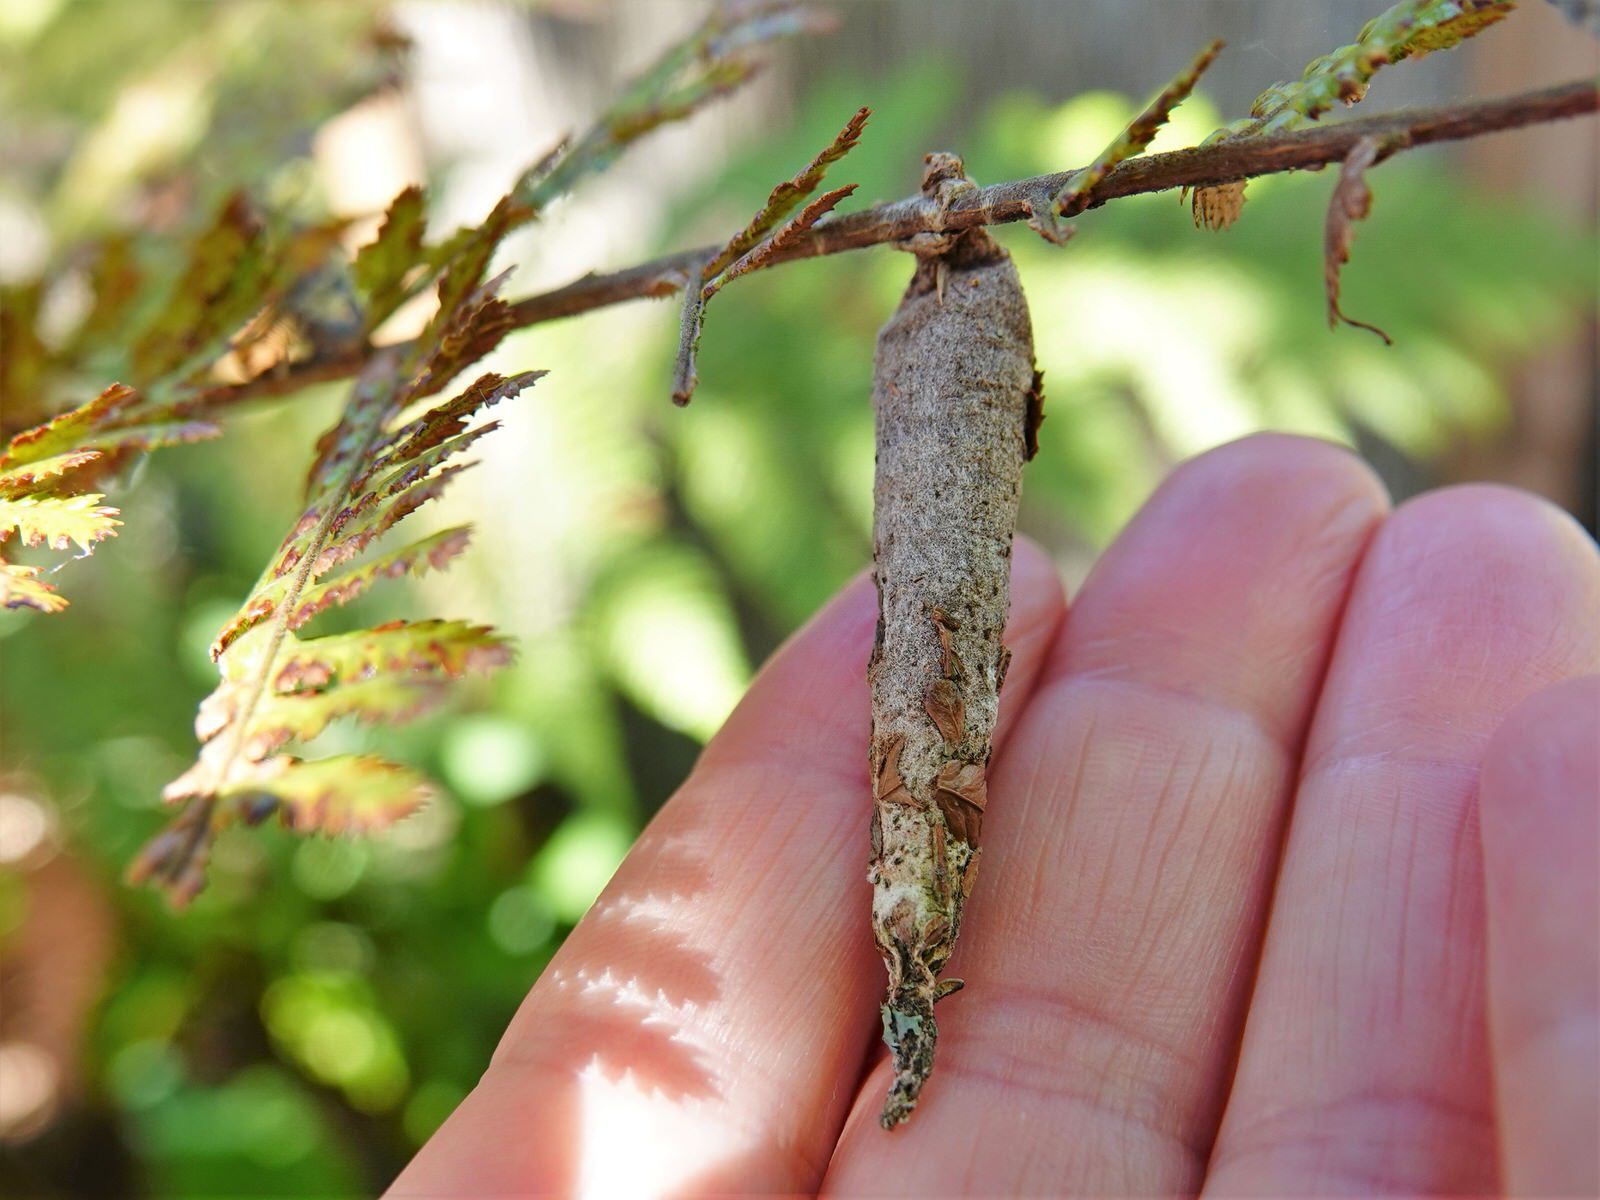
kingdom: Animalia
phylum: Arthropoda
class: Insecta
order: Lepidoptera
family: Psychidae
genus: Liothula
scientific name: Liothula omnivora
